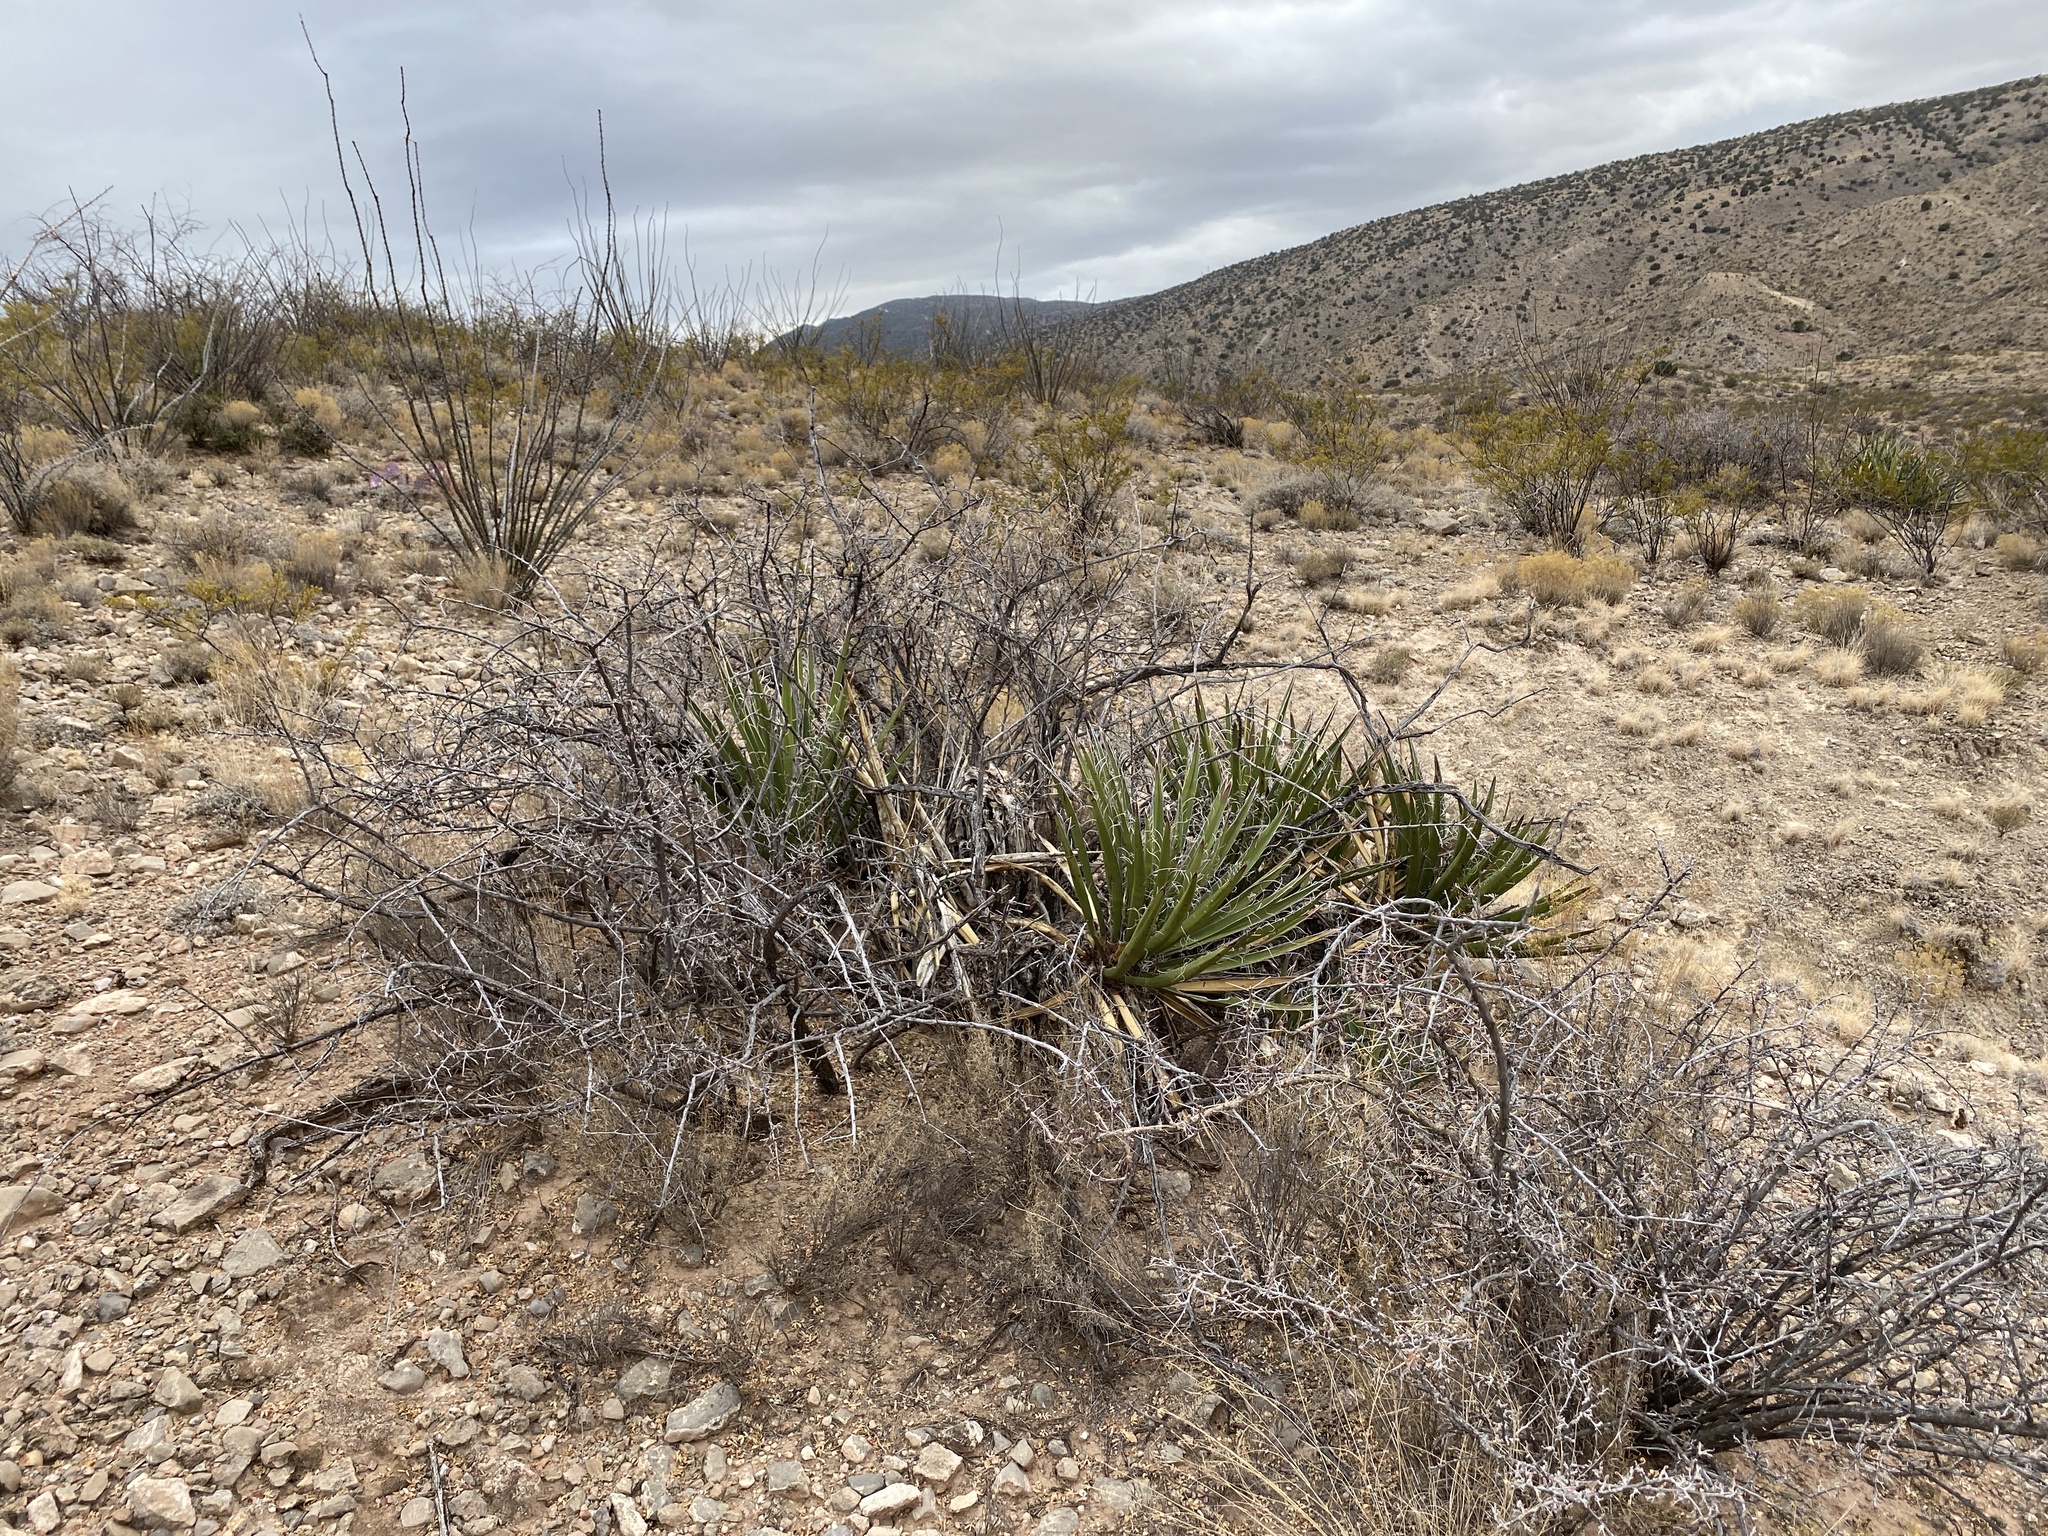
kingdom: Plantae
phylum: Tracheophyta
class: Liliopsida
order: Asparagales
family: Asparagaceae
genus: Yucca
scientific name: Yucca baccata
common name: Banana yucca
